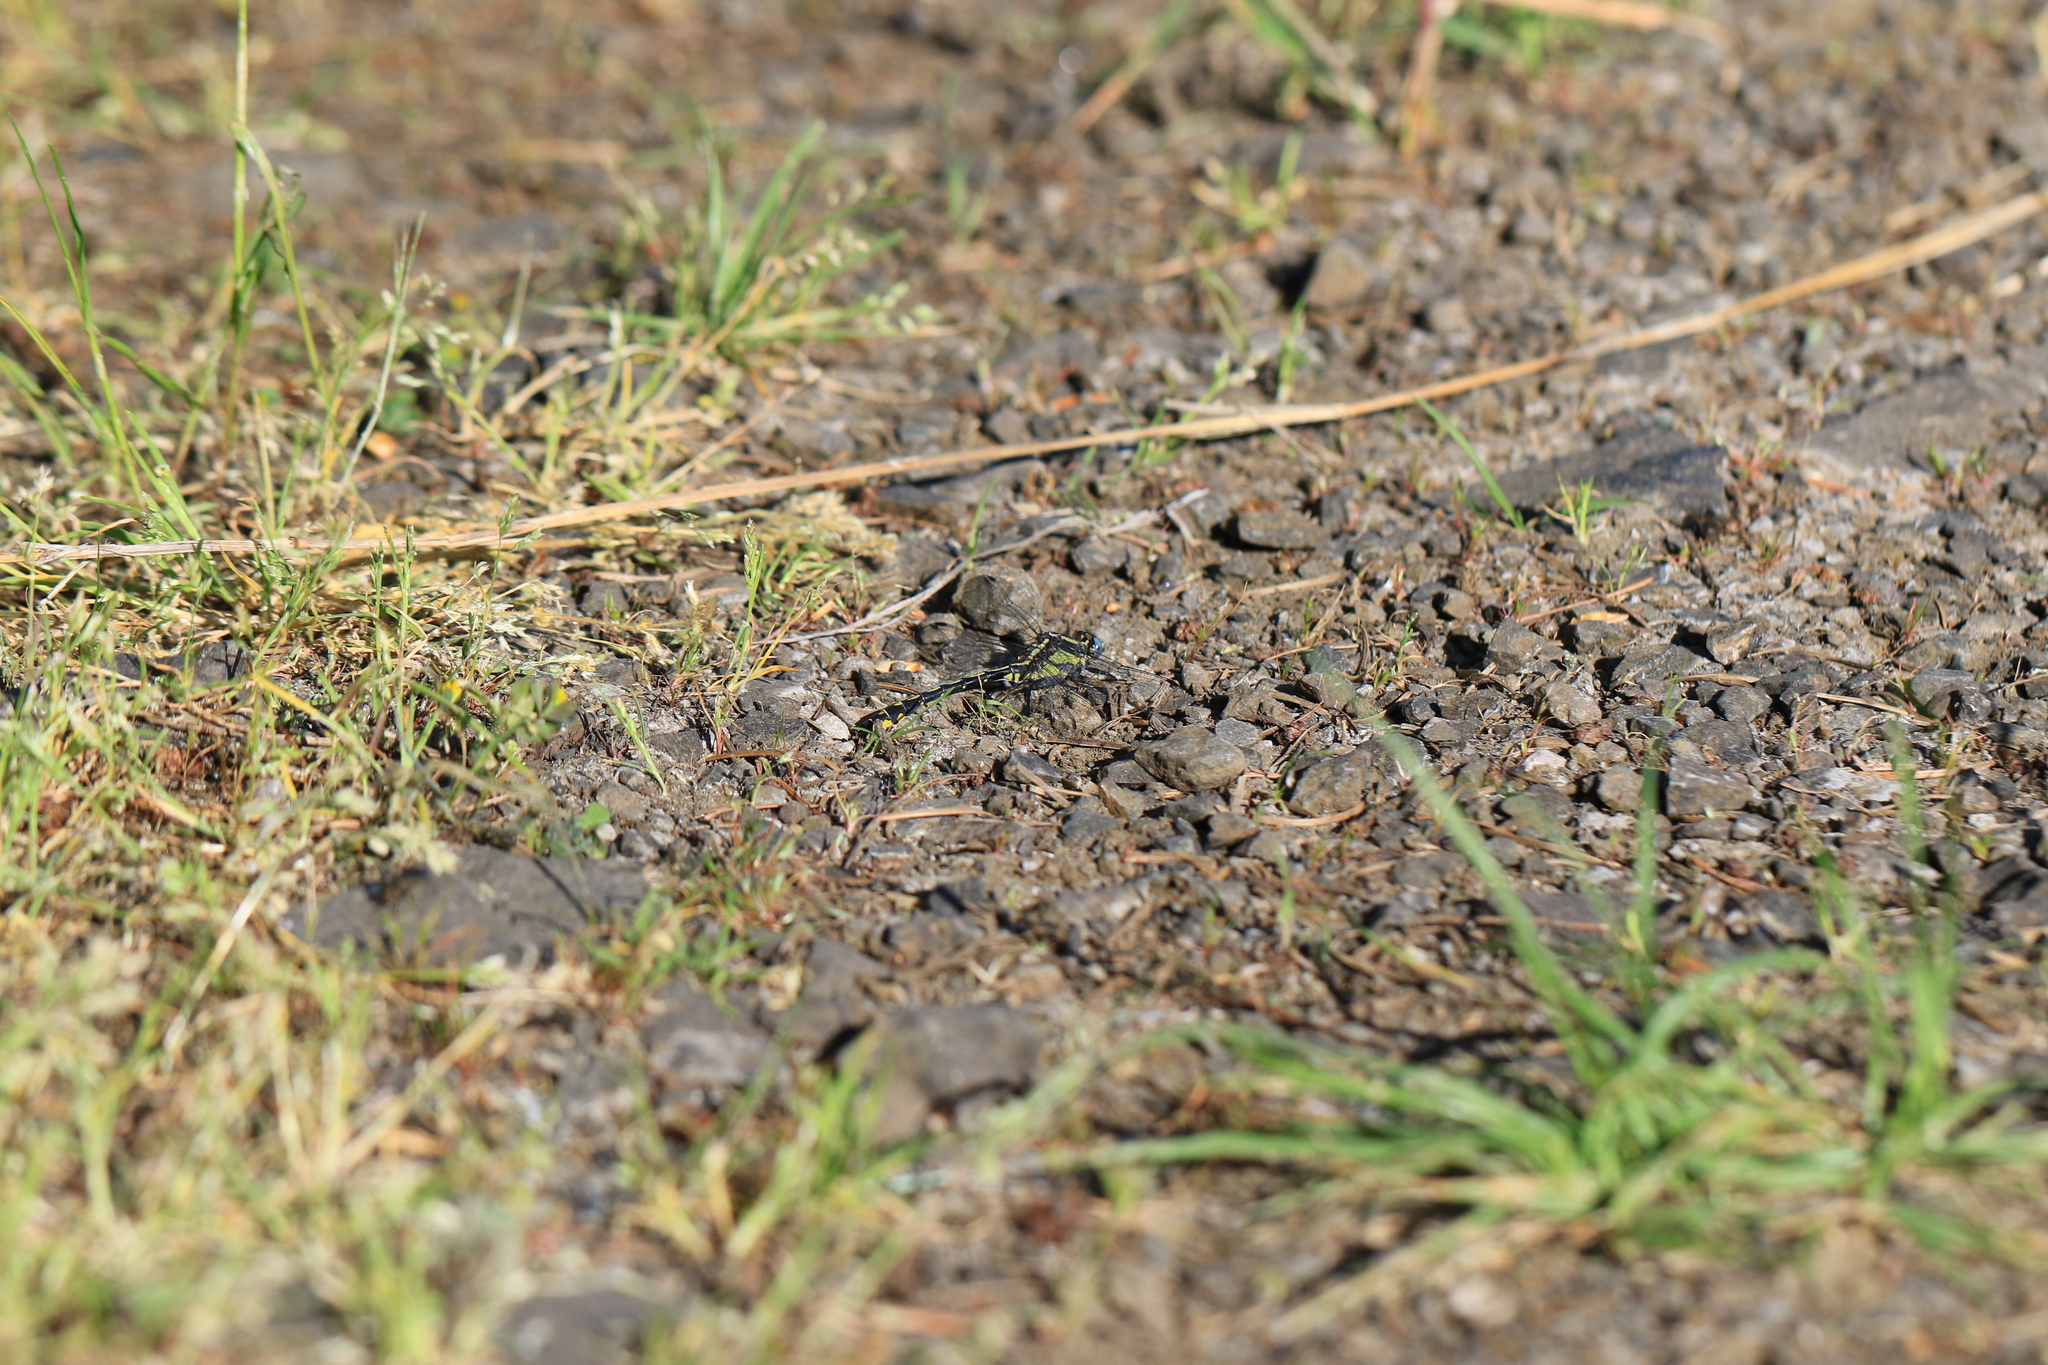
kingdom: Animalia
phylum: Arthropoda
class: Insecta
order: Odonata
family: Gomphidae
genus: Phanogomphus
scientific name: Phanogomphus kurilis
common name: Pacific clubtail
